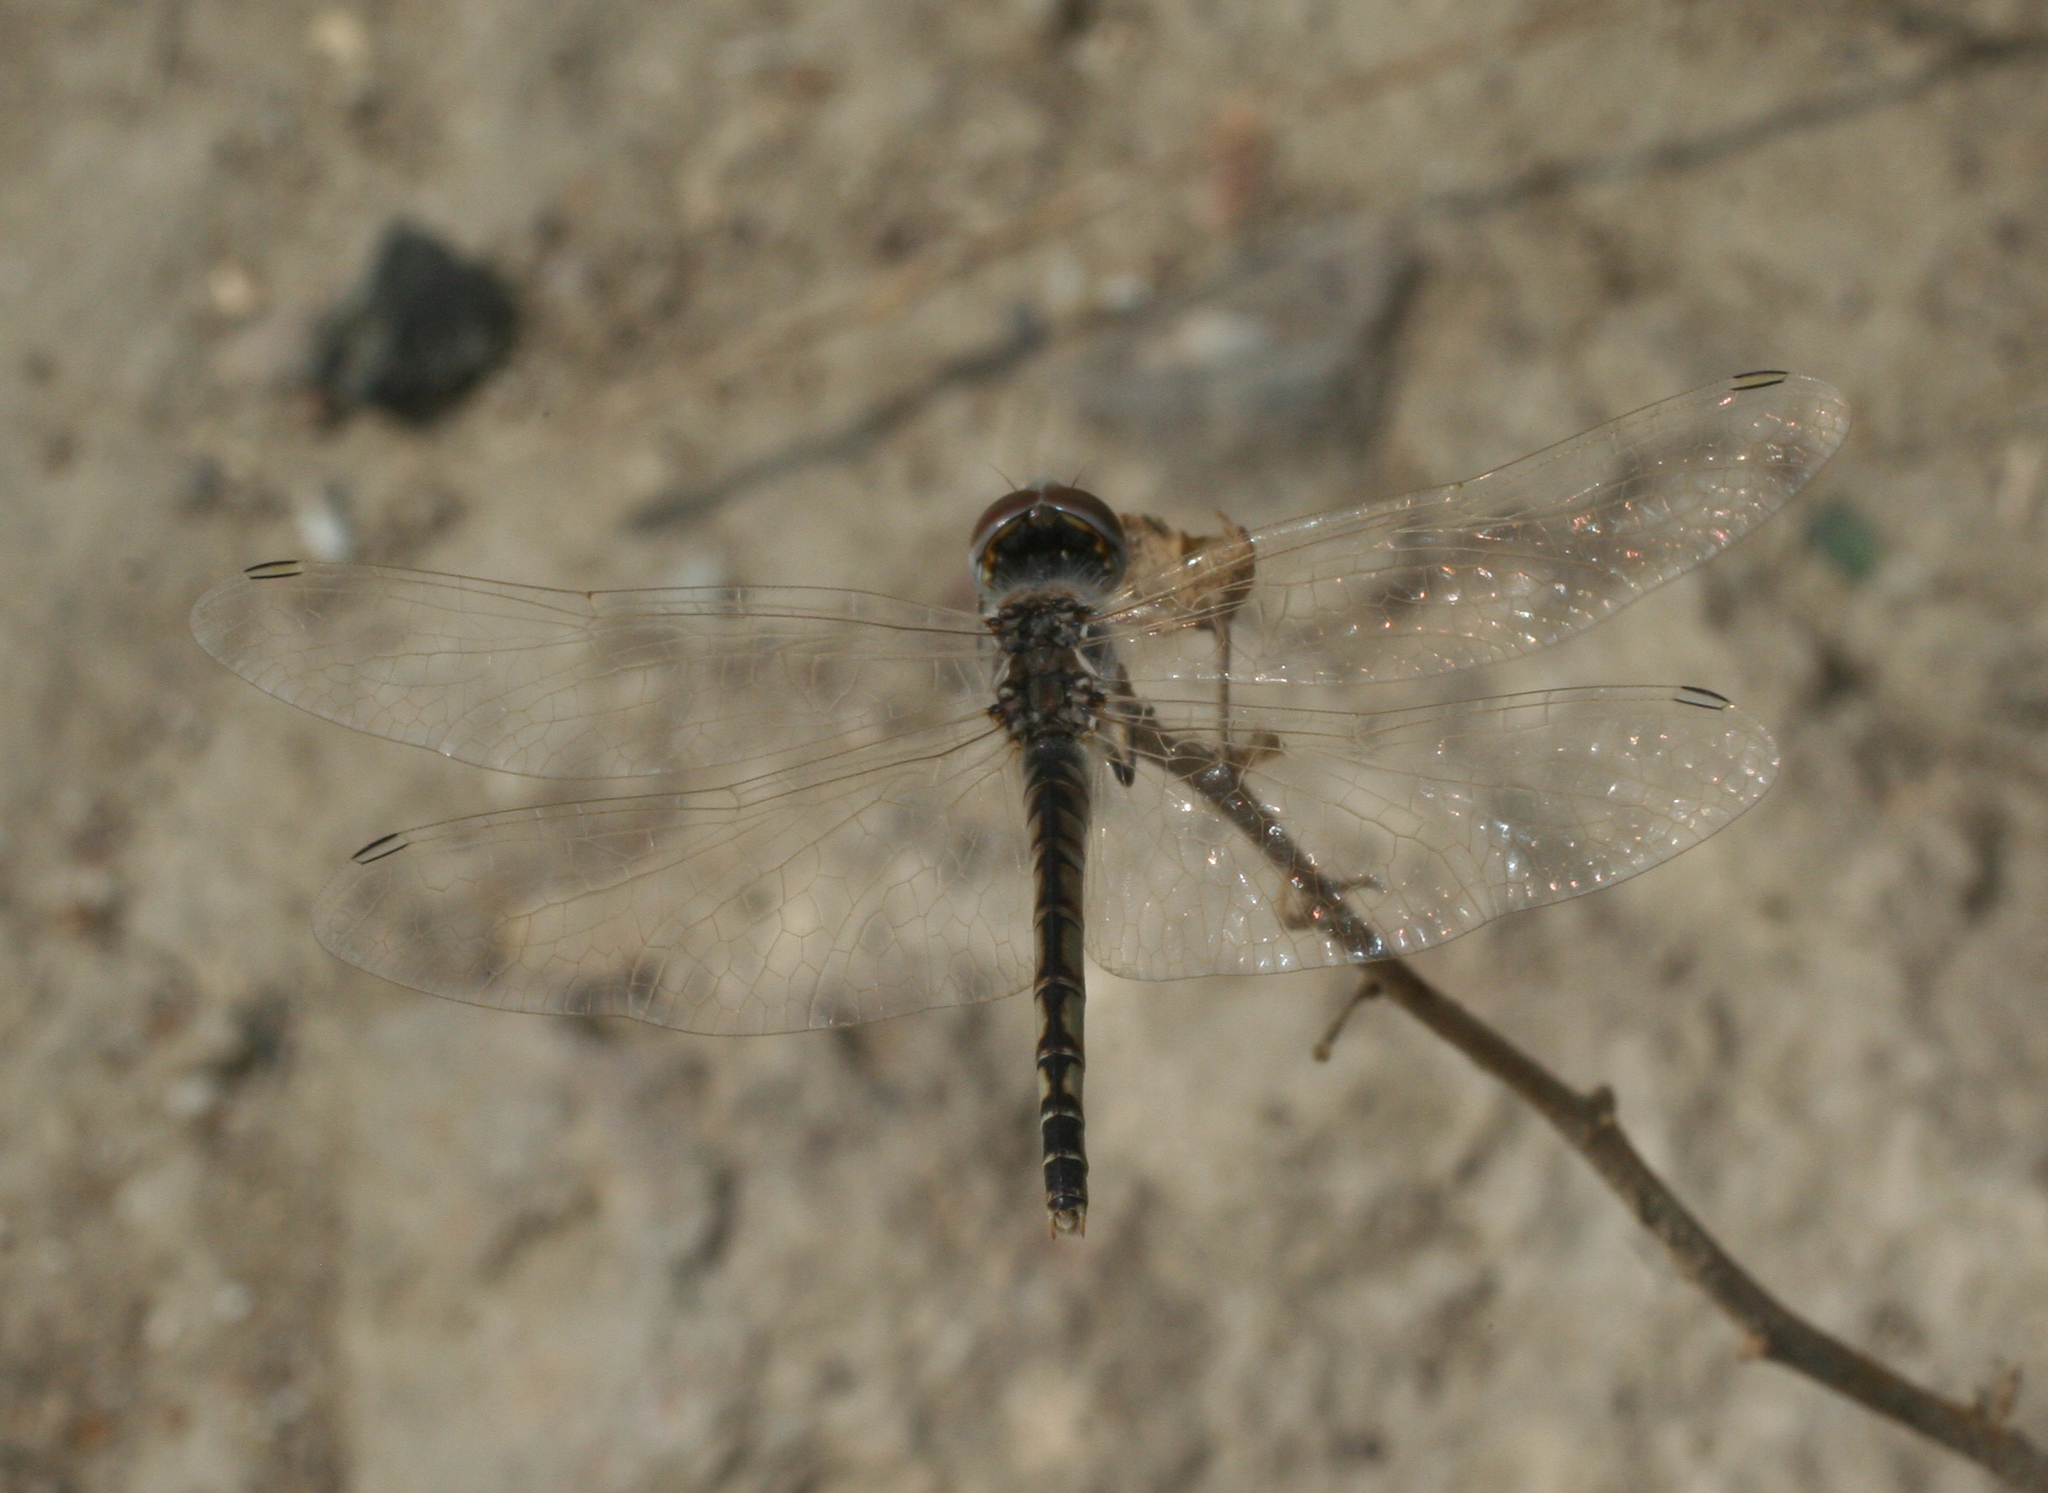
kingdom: Animalia
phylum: Arthropoda
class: Insecta
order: Odonata
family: Libellulidae
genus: Selysiothemis
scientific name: Selysiothemis nigra
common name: Black pennant
